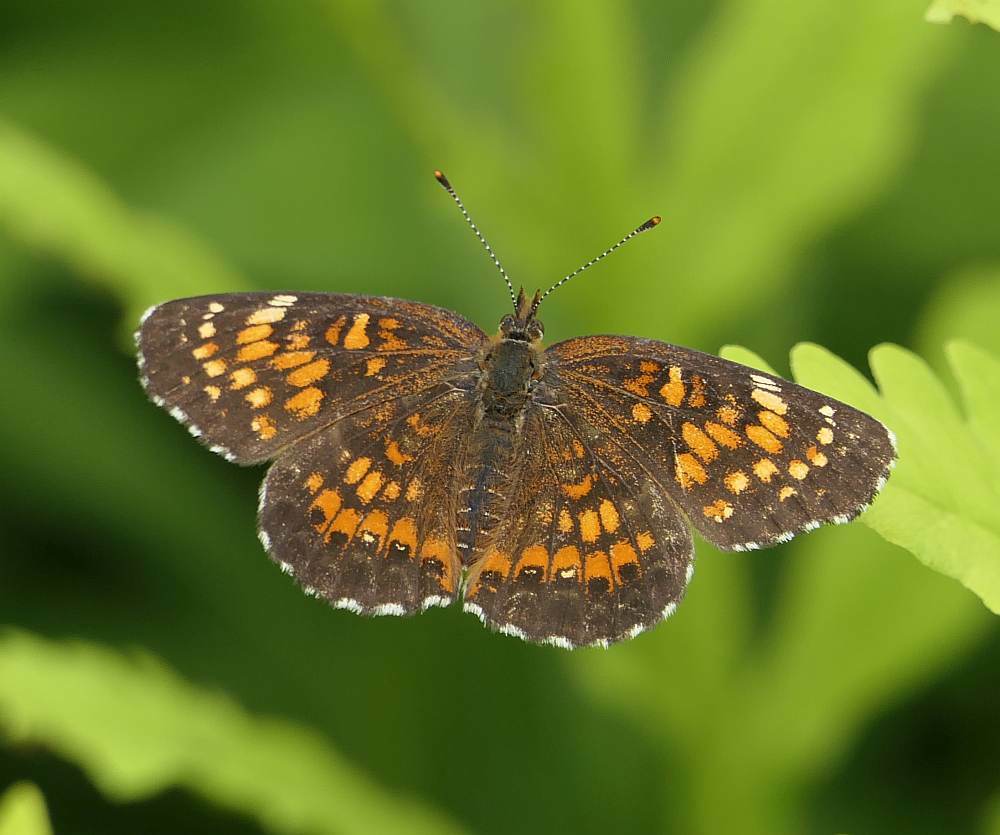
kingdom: Animalia
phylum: Arthropoda
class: Insecta
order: Lepidoptera
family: Nymphalidae
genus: Chlosyne
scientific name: Chlosyne harrisii
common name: Harris's checkerspot
